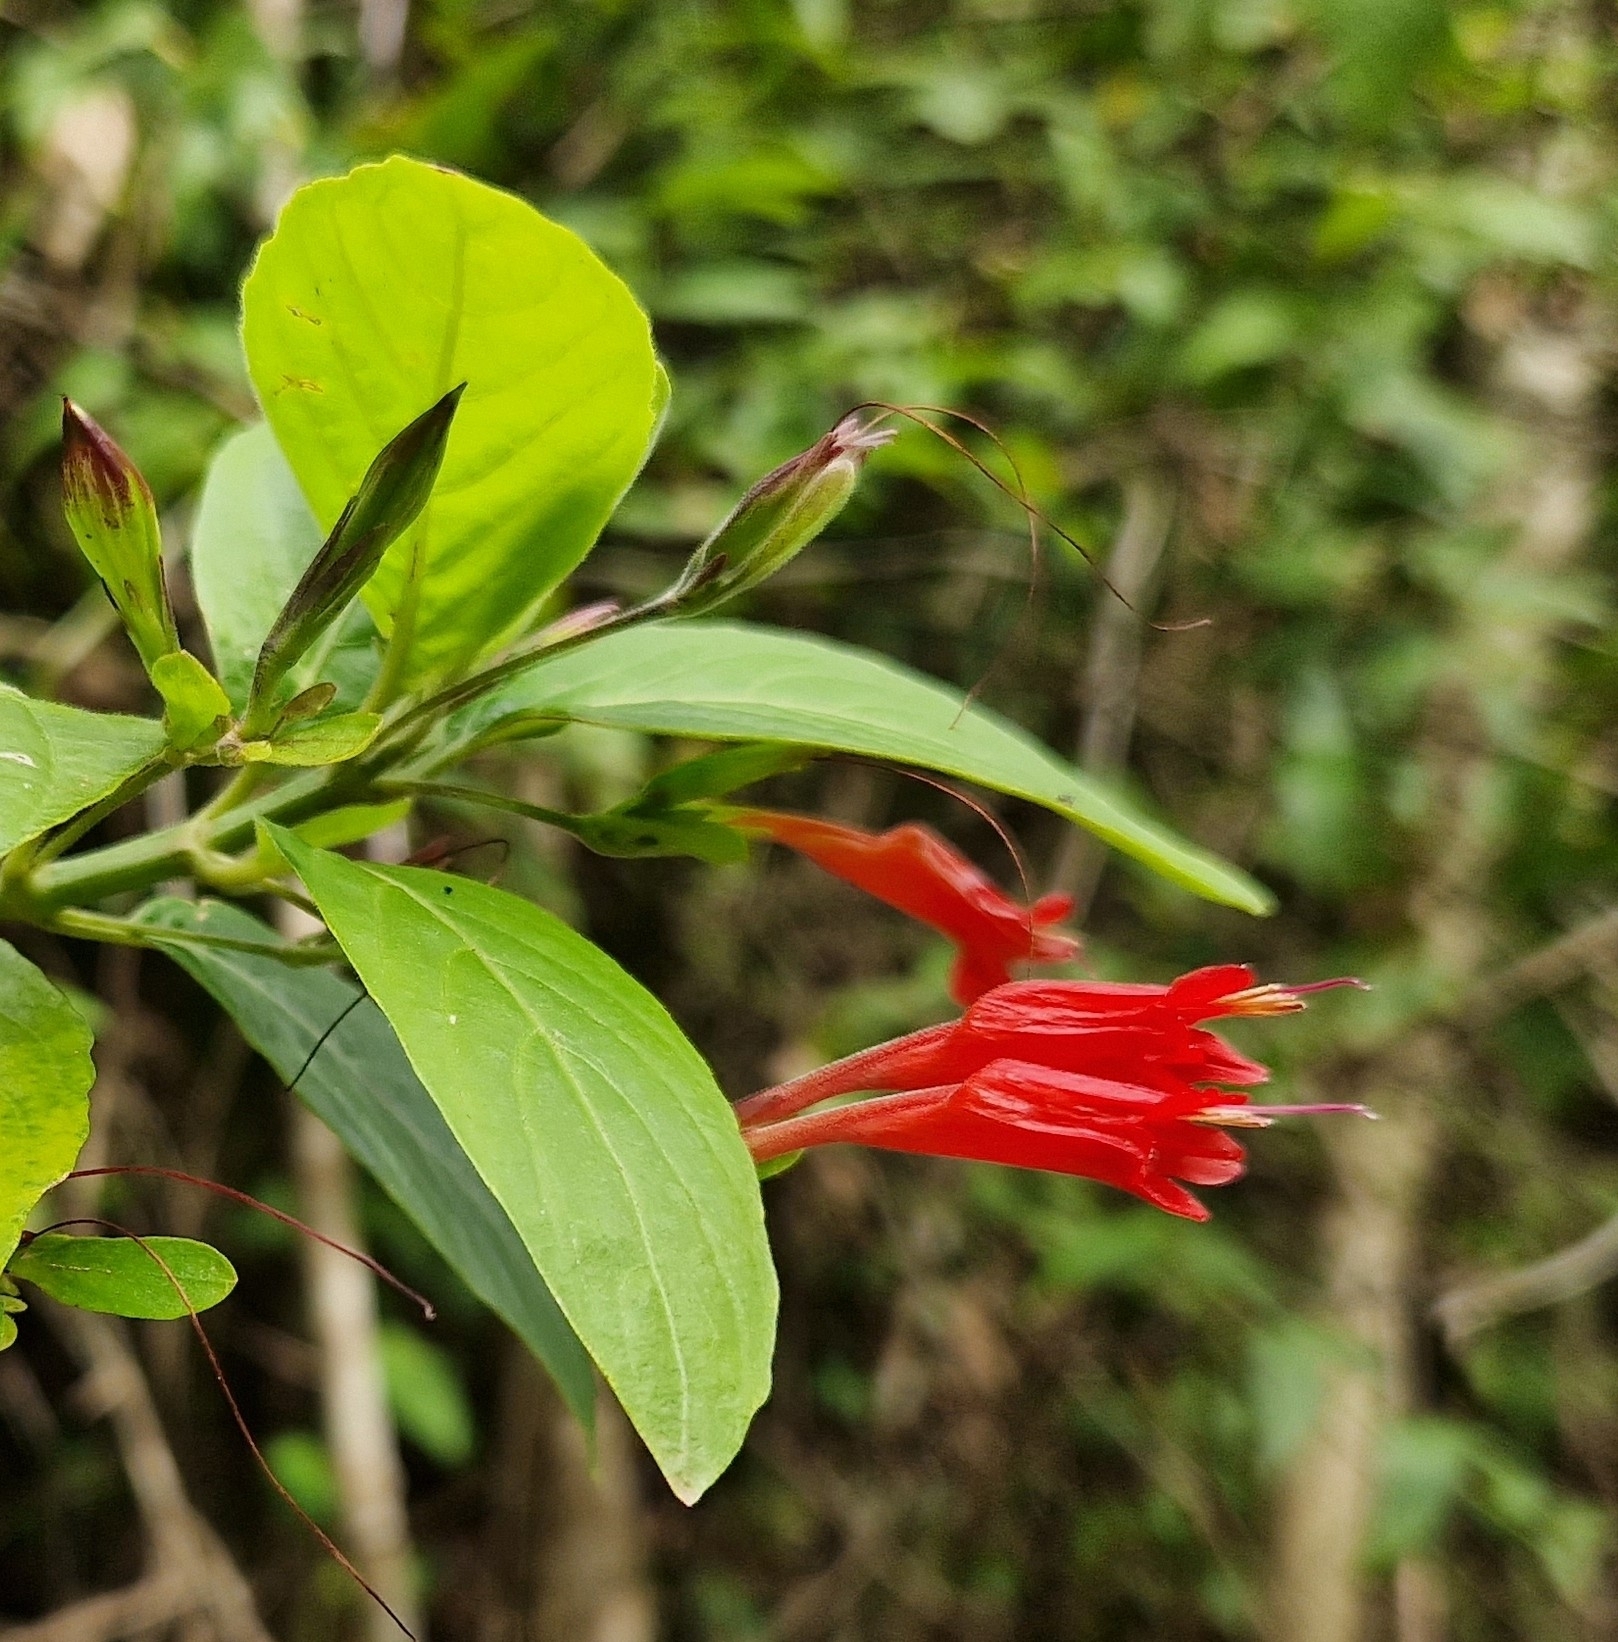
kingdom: Plantae
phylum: Tracheophyta
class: Magnoliopsida
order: Lamiales
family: Acanthaceae
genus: Ruellia
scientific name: Ruellia angustiflora
